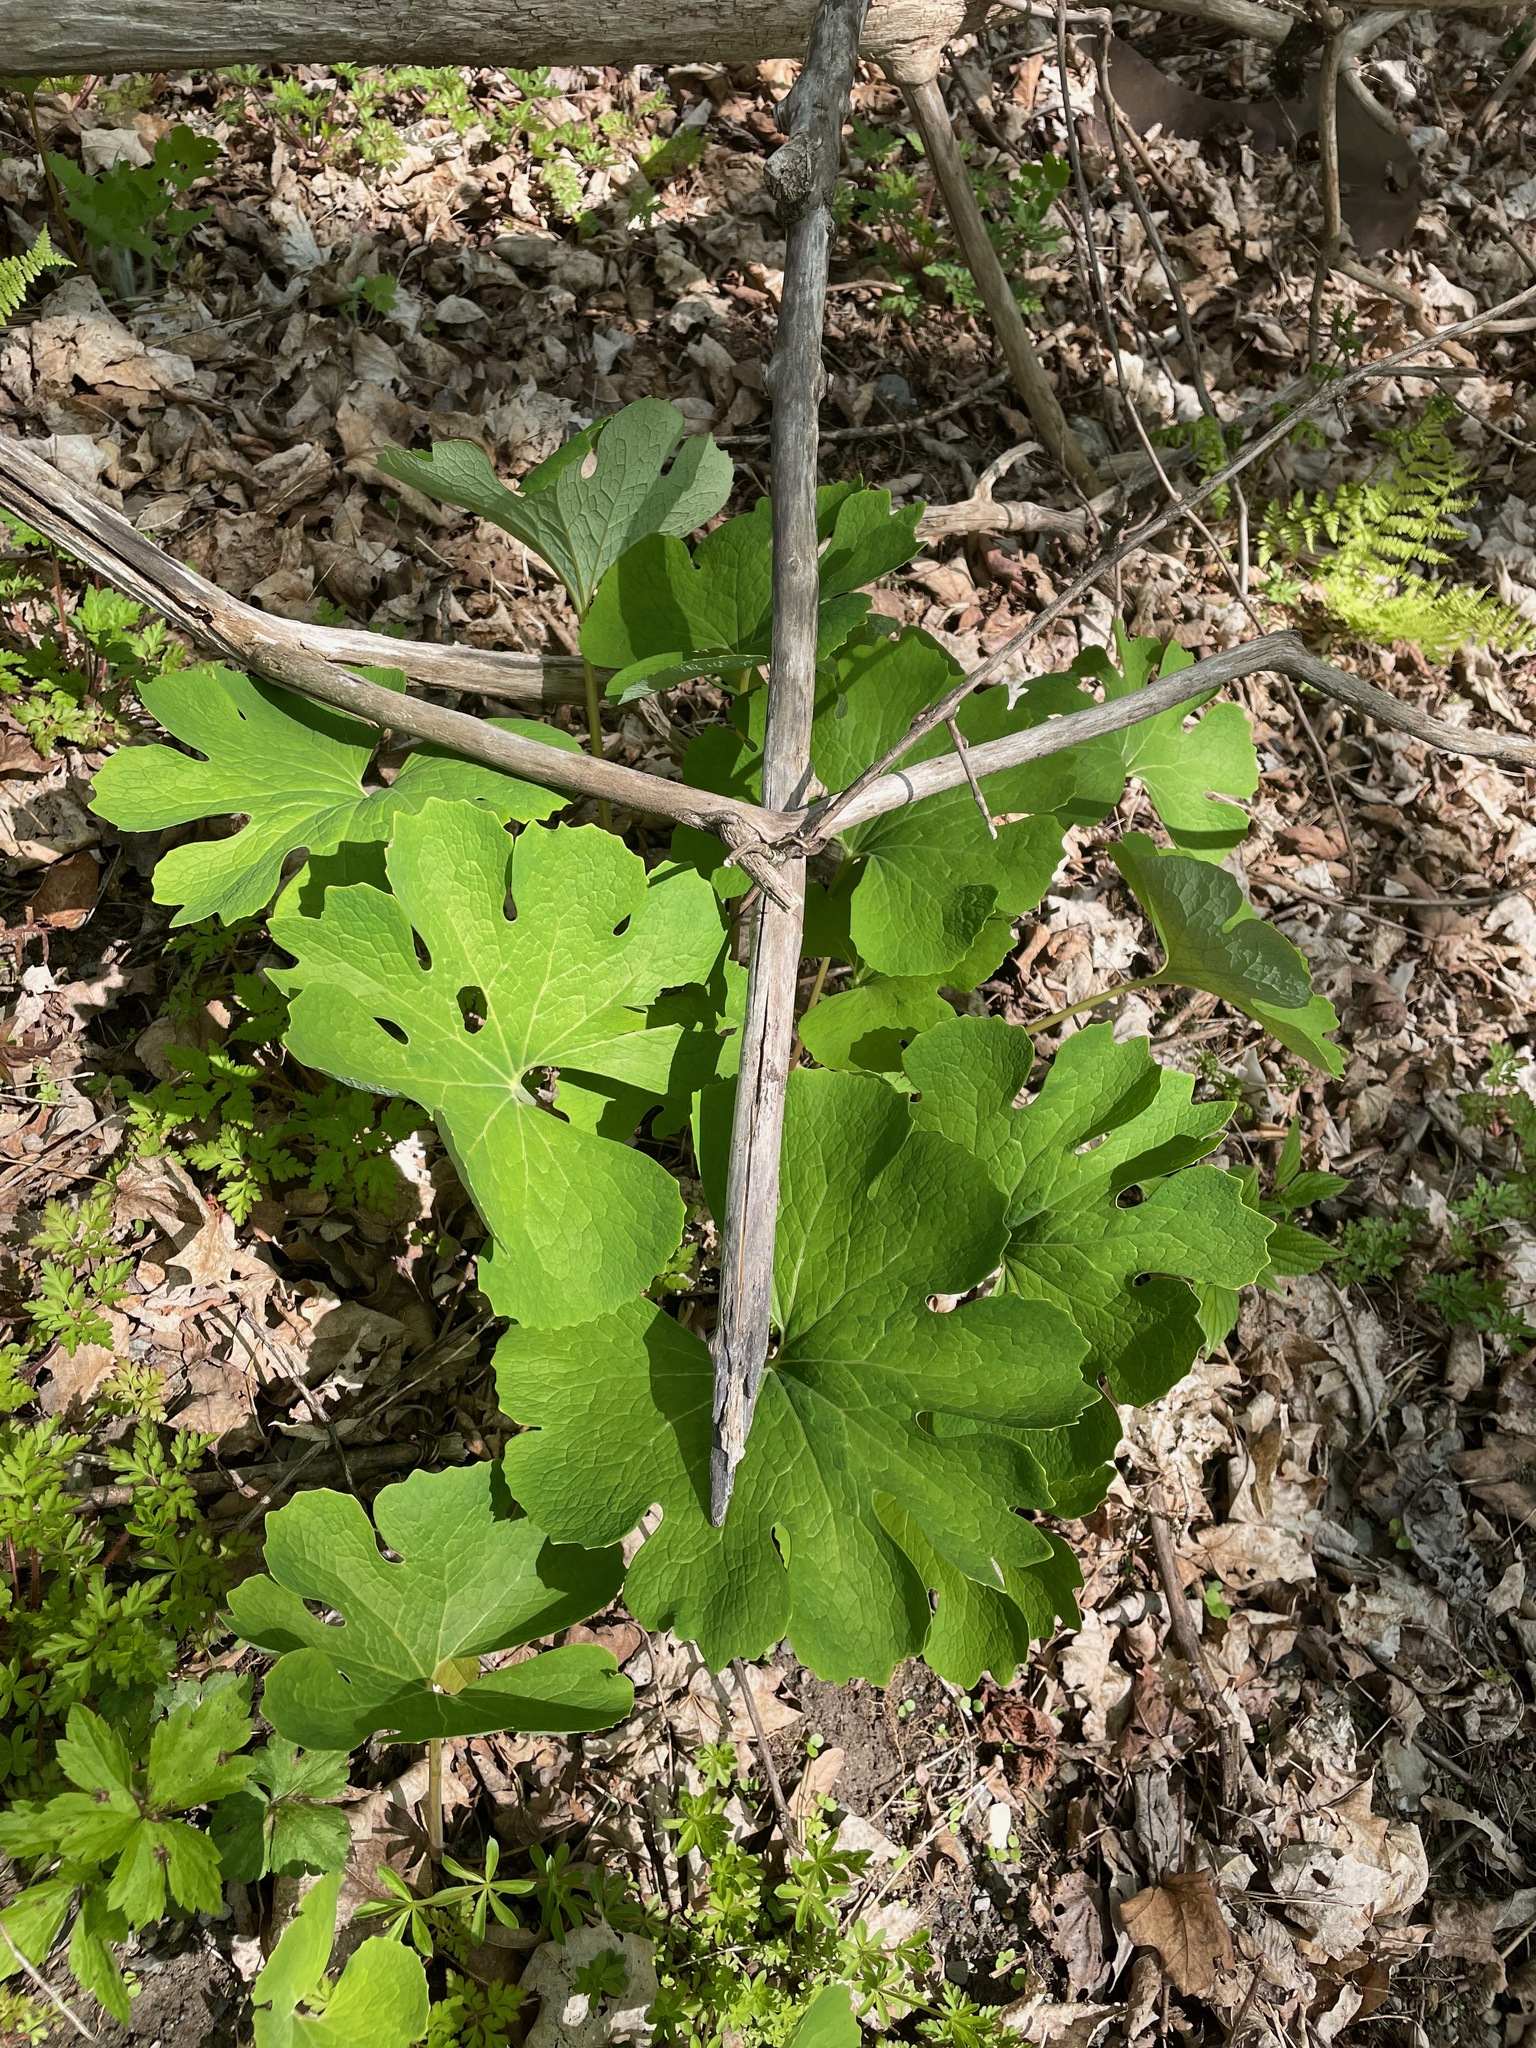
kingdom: Plantae
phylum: Tracheophyta
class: Magnoliopsida
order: Ranunculales
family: Papaveraceae
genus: Sanguinaria
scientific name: Sanguinaria canadensis
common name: Bloodroot
